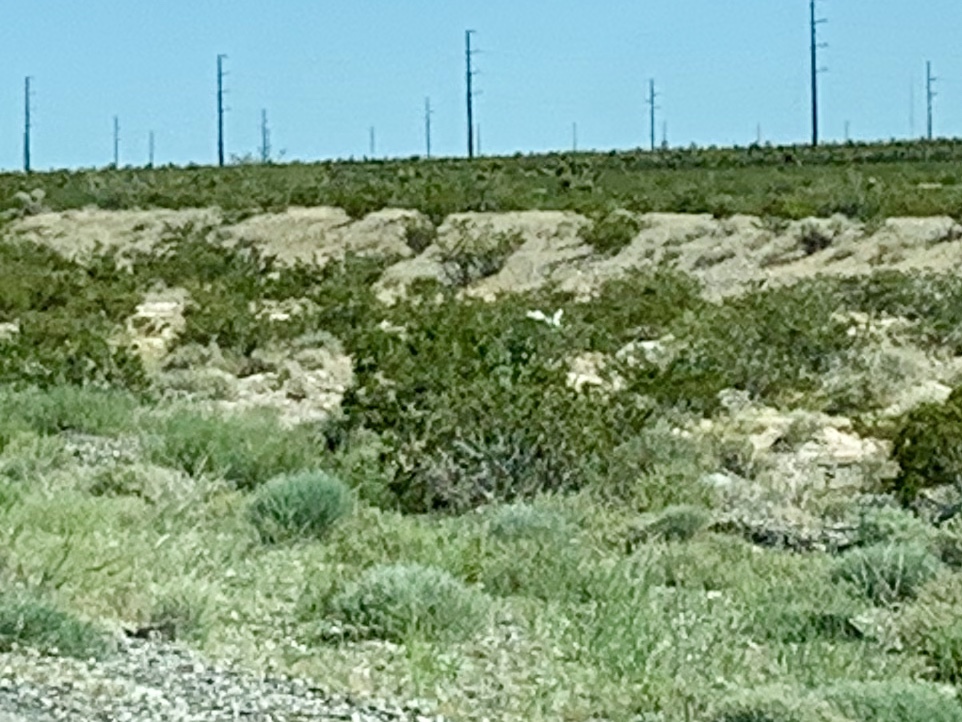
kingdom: Plantae
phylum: Tracheophyta
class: Magnoliopsida
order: Zygophyllales
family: Zygophyllaceae
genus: Larrea
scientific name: Larrea tridentata
